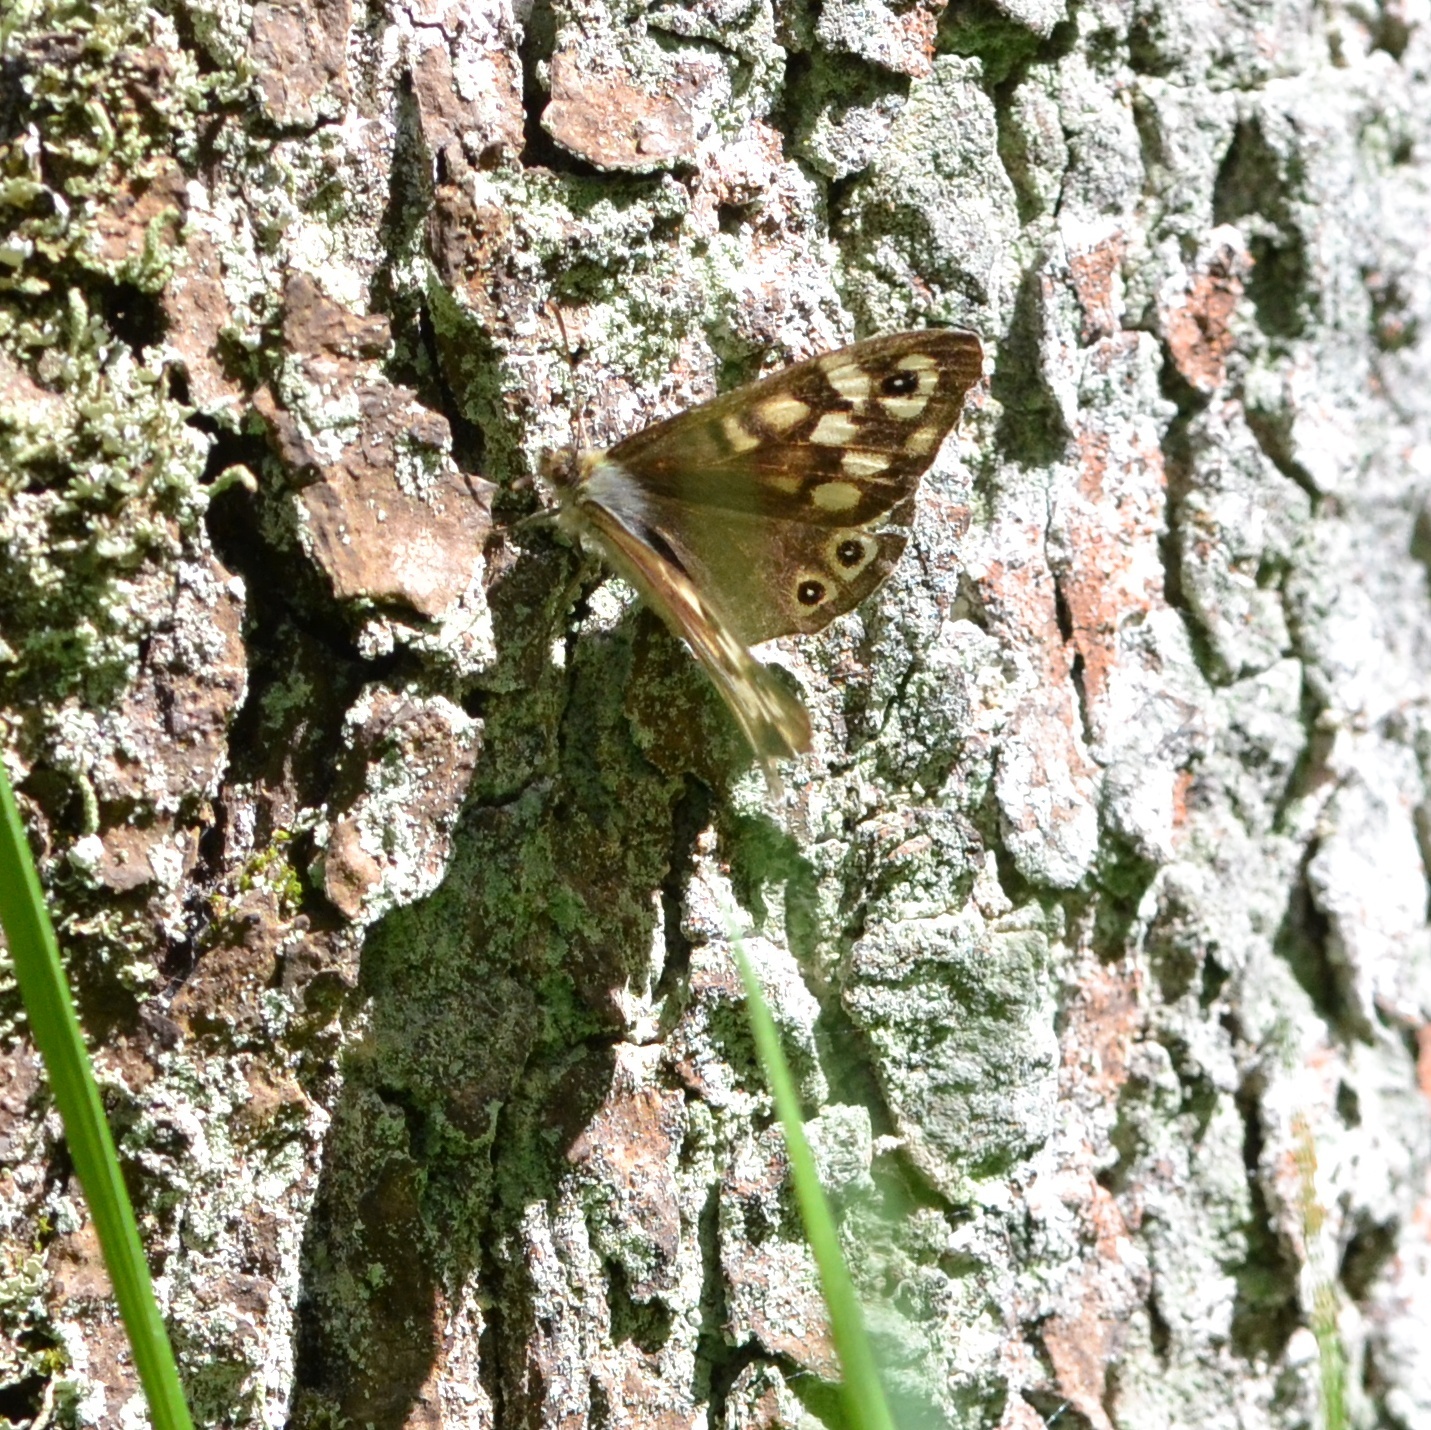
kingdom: Animalia
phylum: Arthropoda
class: Insecta
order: Lepidoptera
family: Nymphalidae
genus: Pararge
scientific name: Pararge aegeria
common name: Speckled wood
